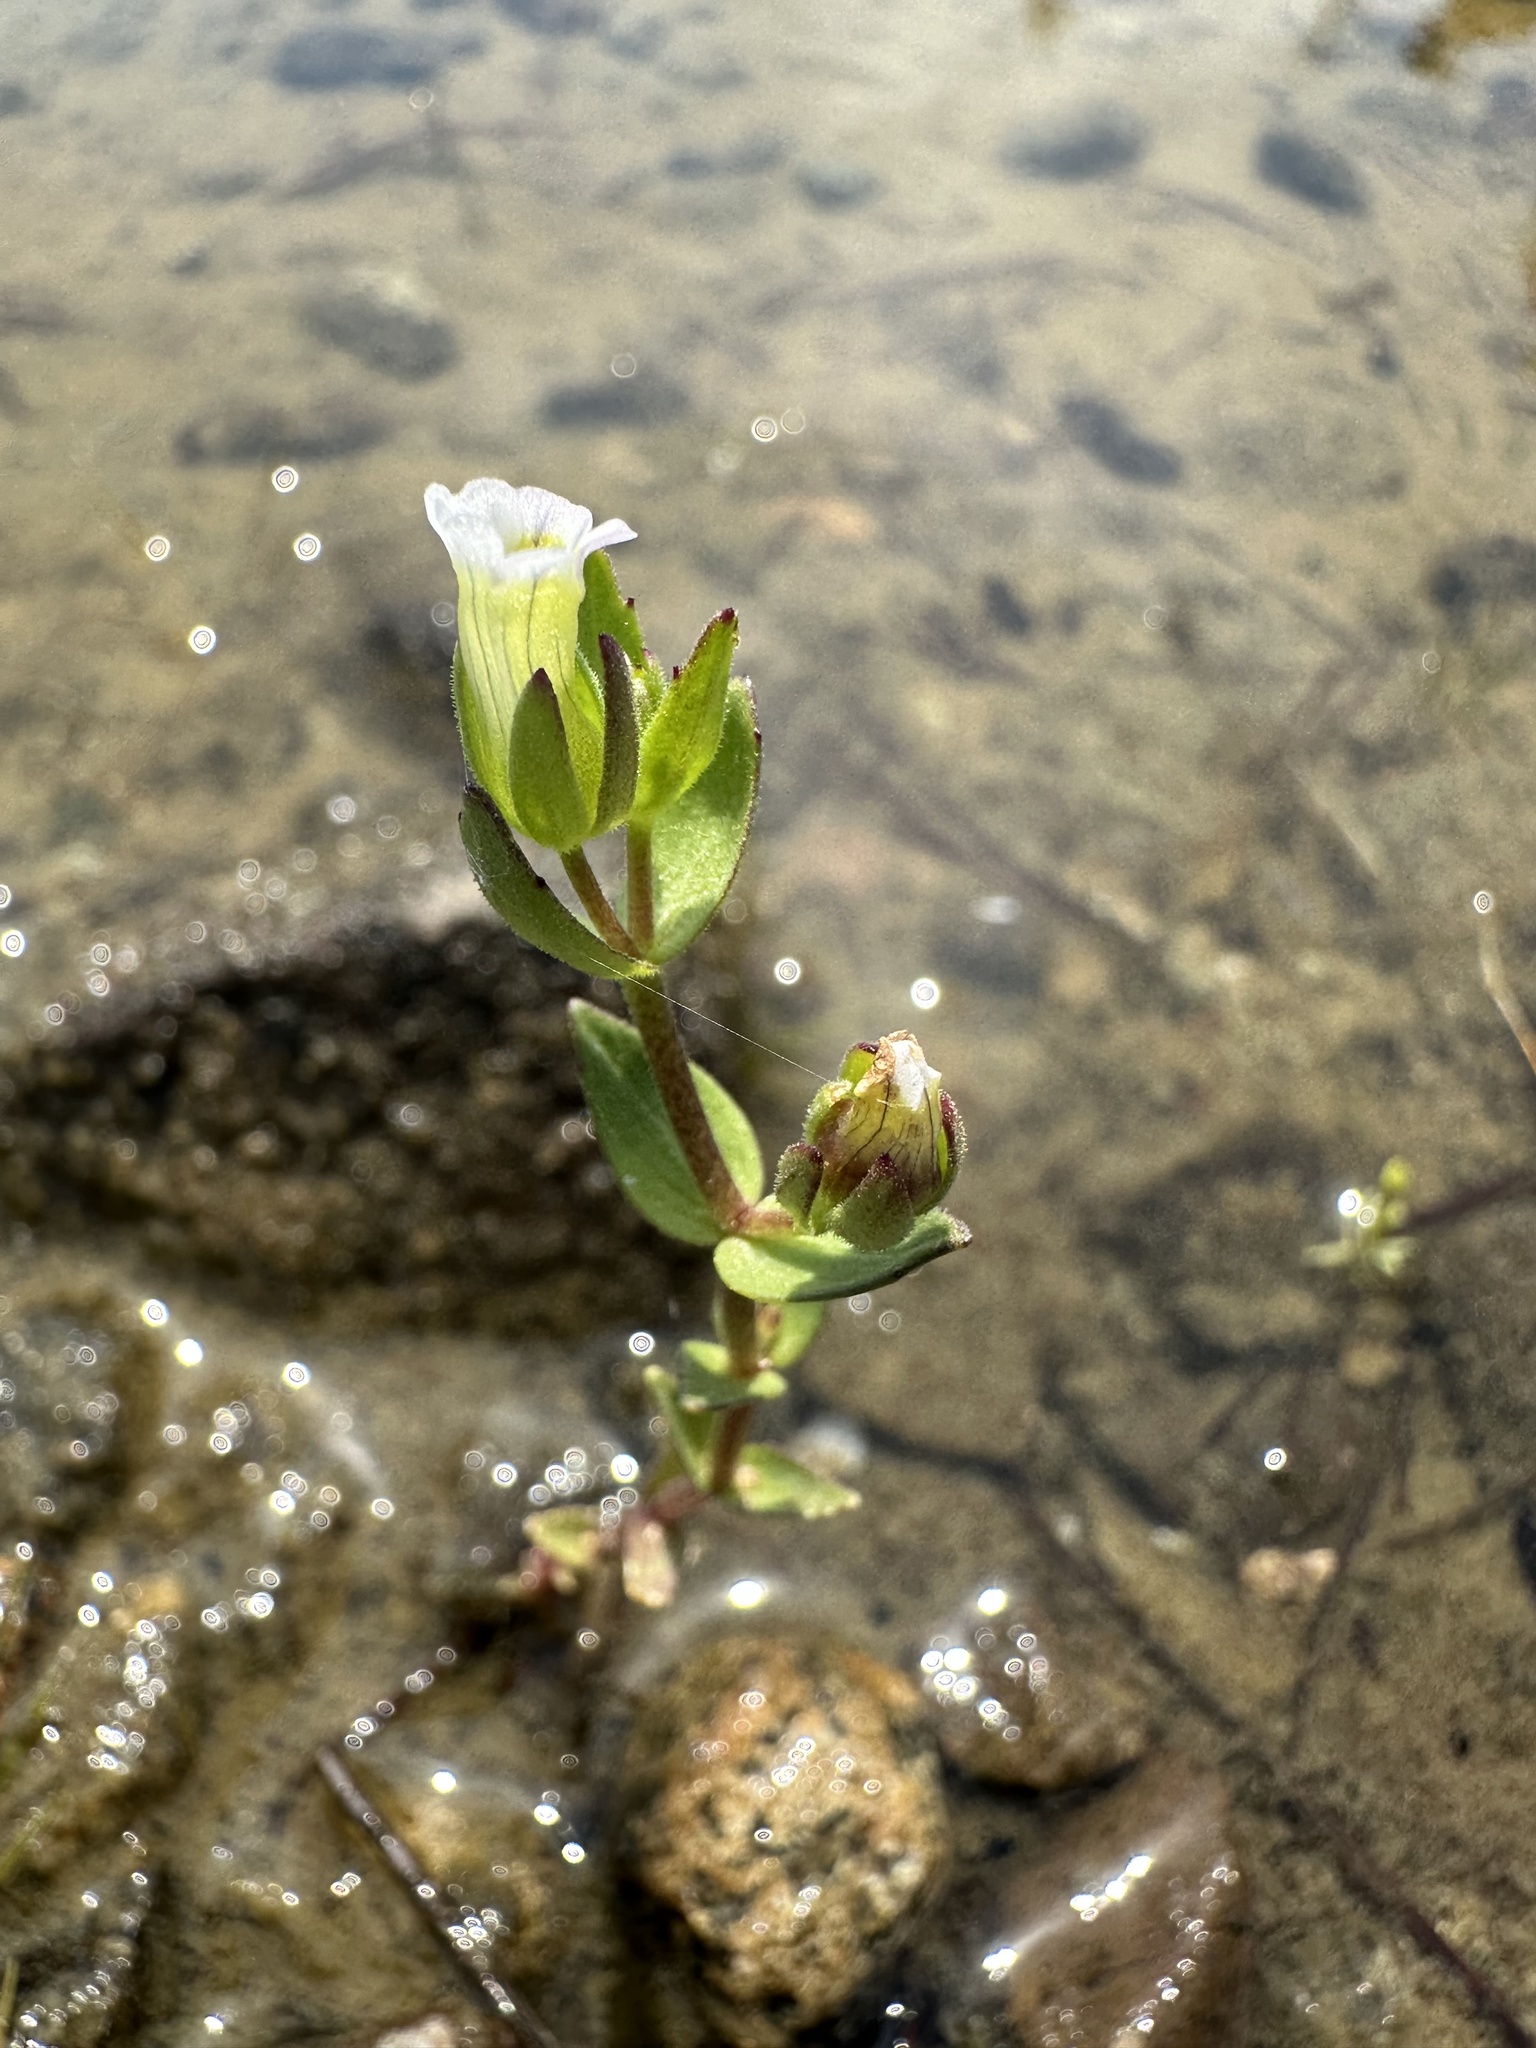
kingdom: Plantae
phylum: Tracheophyta
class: Magnoliopsida
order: Lamiales
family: Plantaginaceae
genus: Gratiola
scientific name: Gratiola ebracteata
